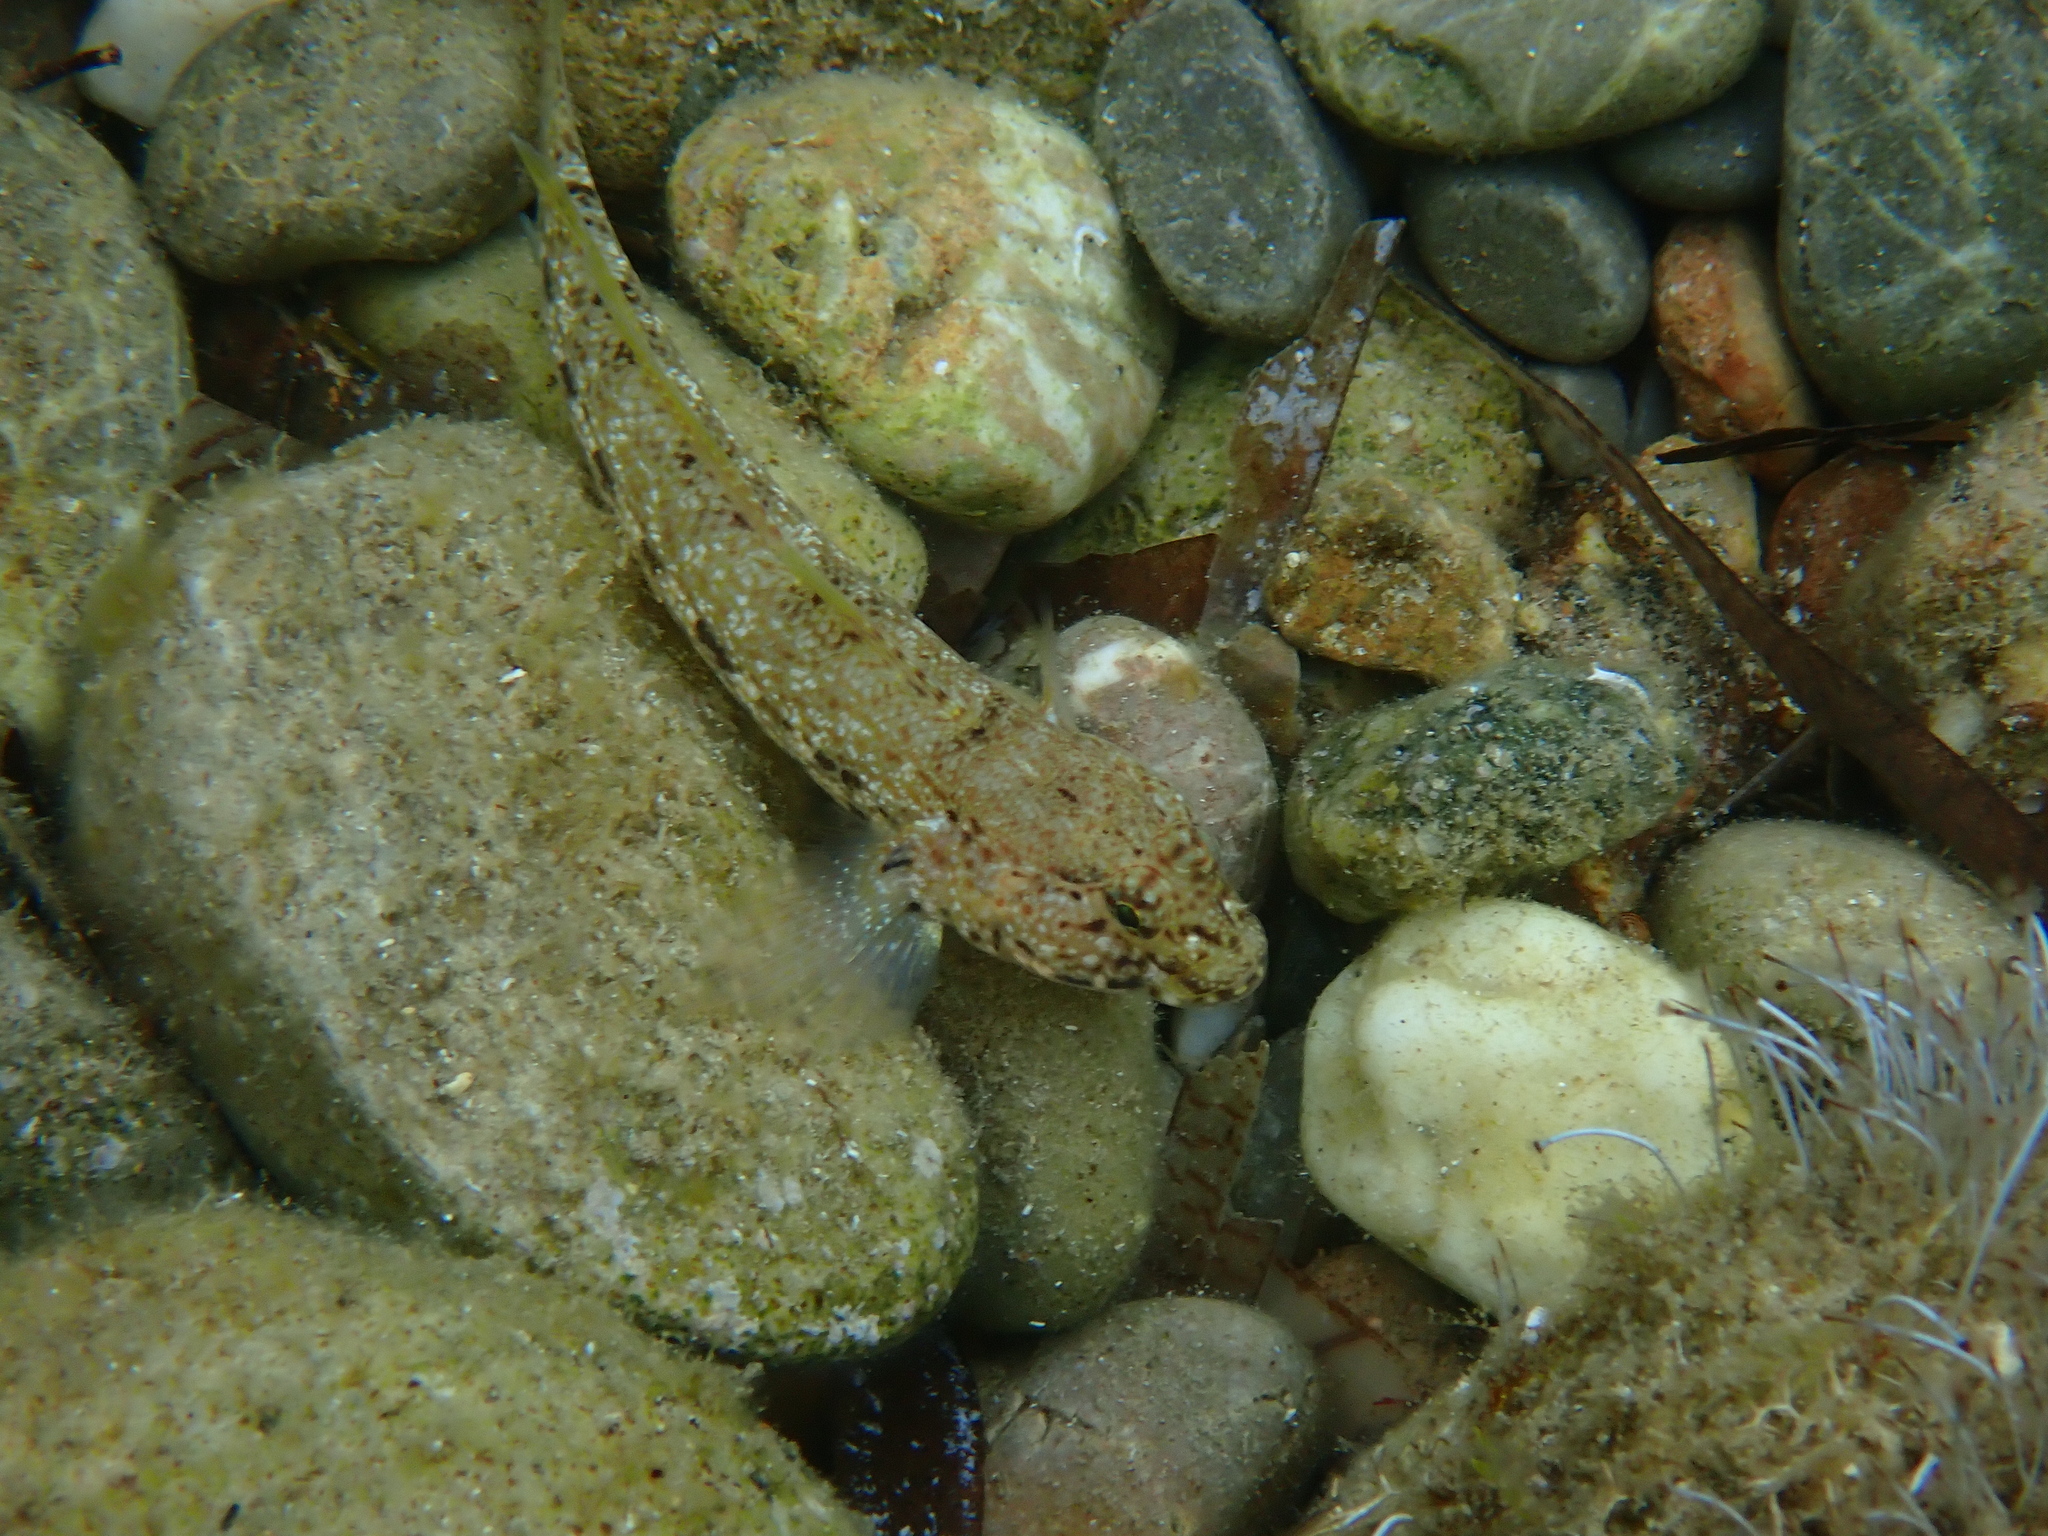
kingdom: Animalia
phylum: Chordata
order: Perciformes
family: Gobiidae
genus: Gobius
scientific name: Gobius incognitus
